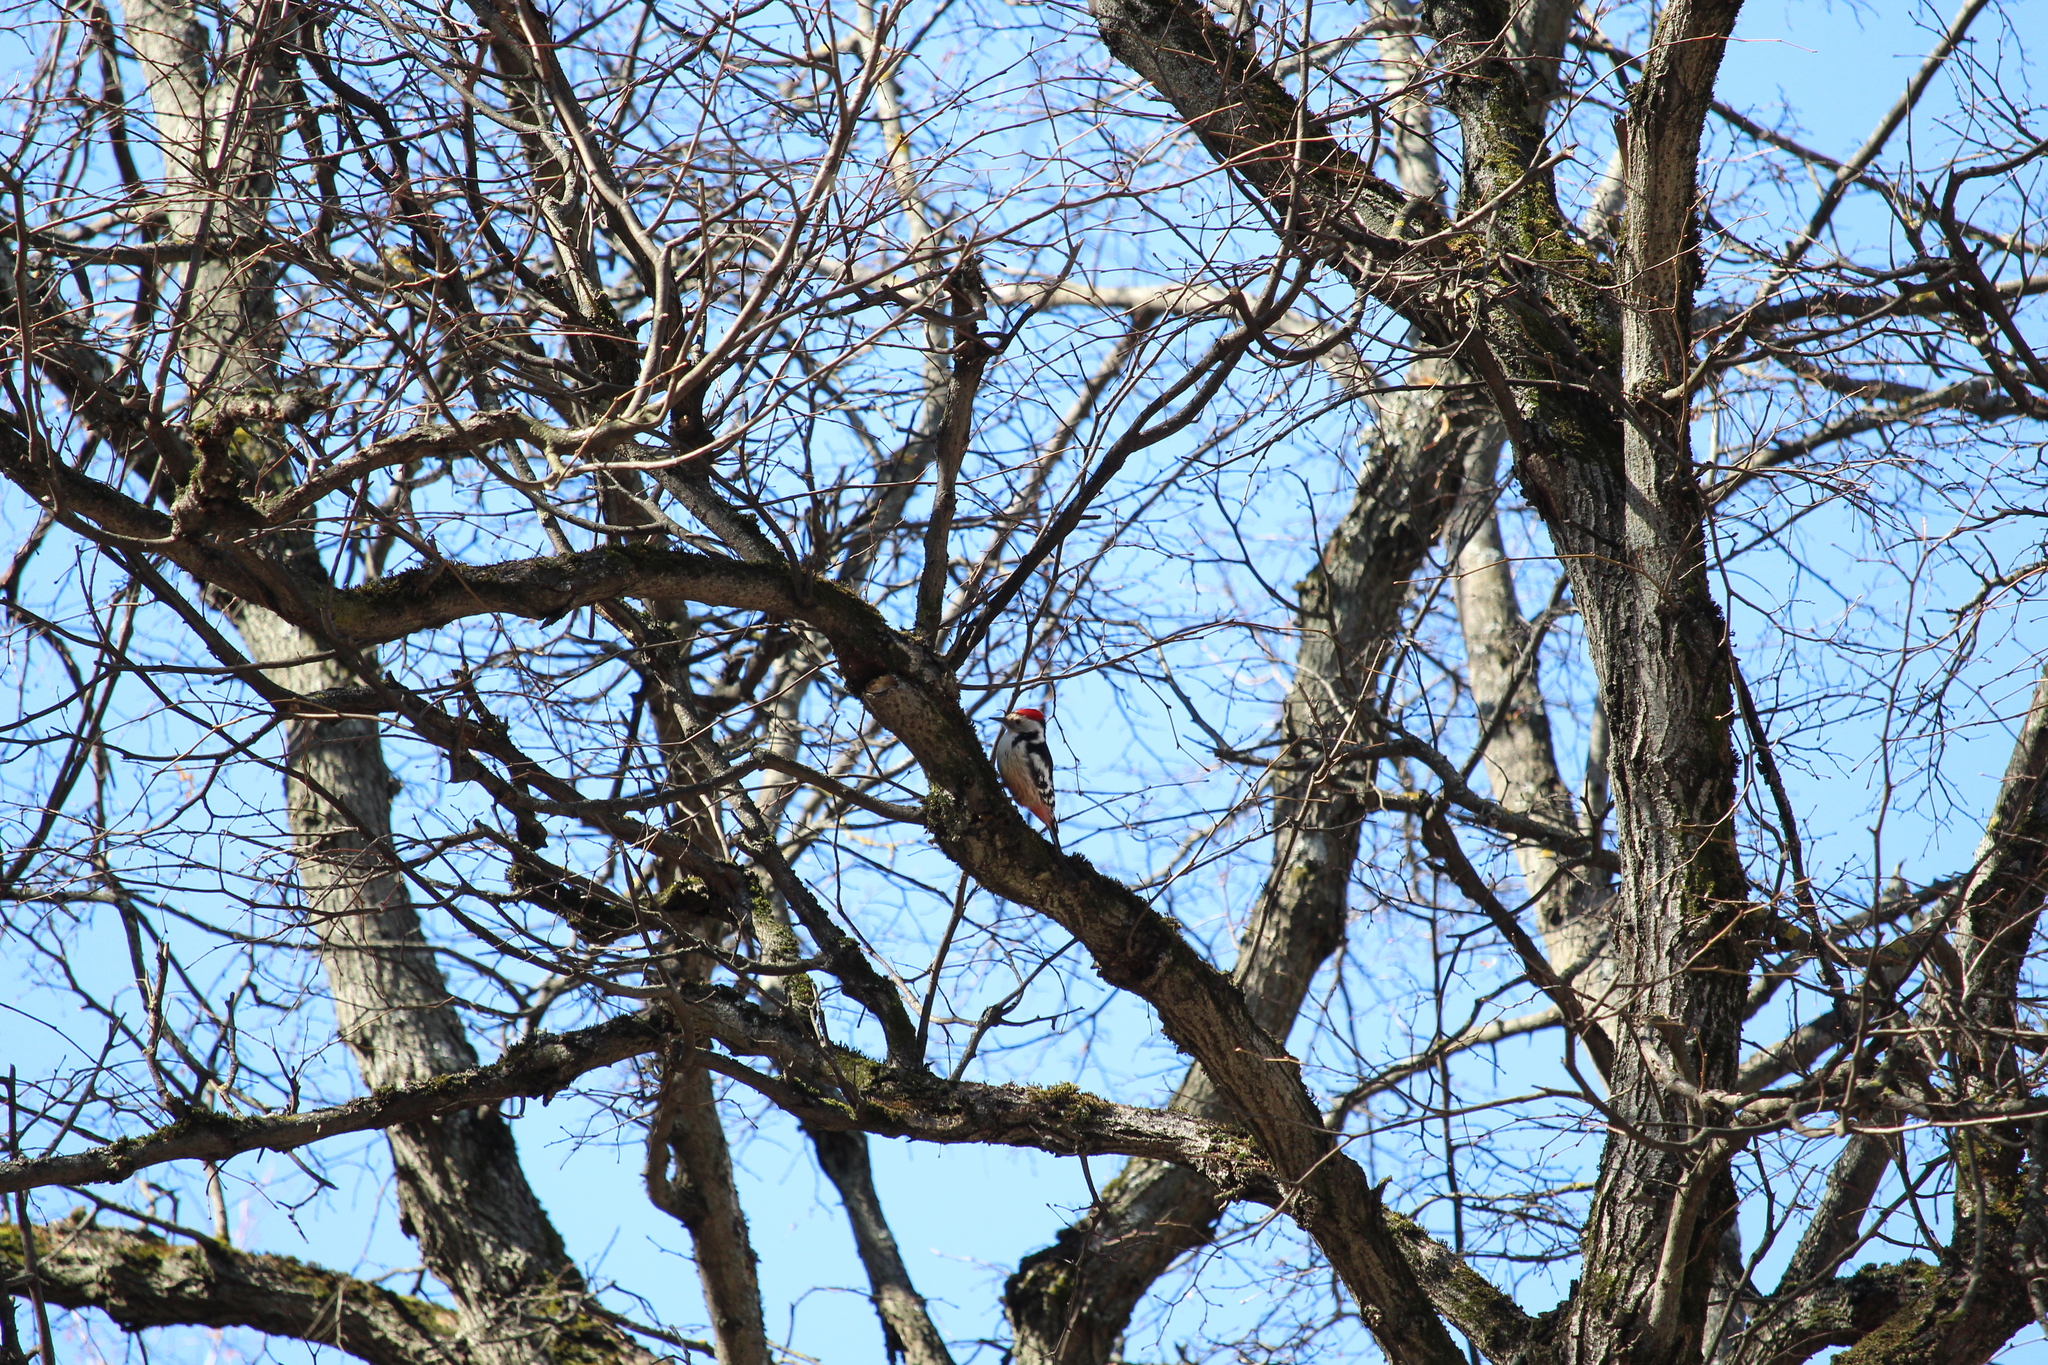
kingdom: Animalia
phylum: Chordata
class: Aves
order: Piciformes
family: Picidae
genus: Dendrocoptes
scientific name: Dendrocoptes medius
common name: Middle spotted woodpecker
